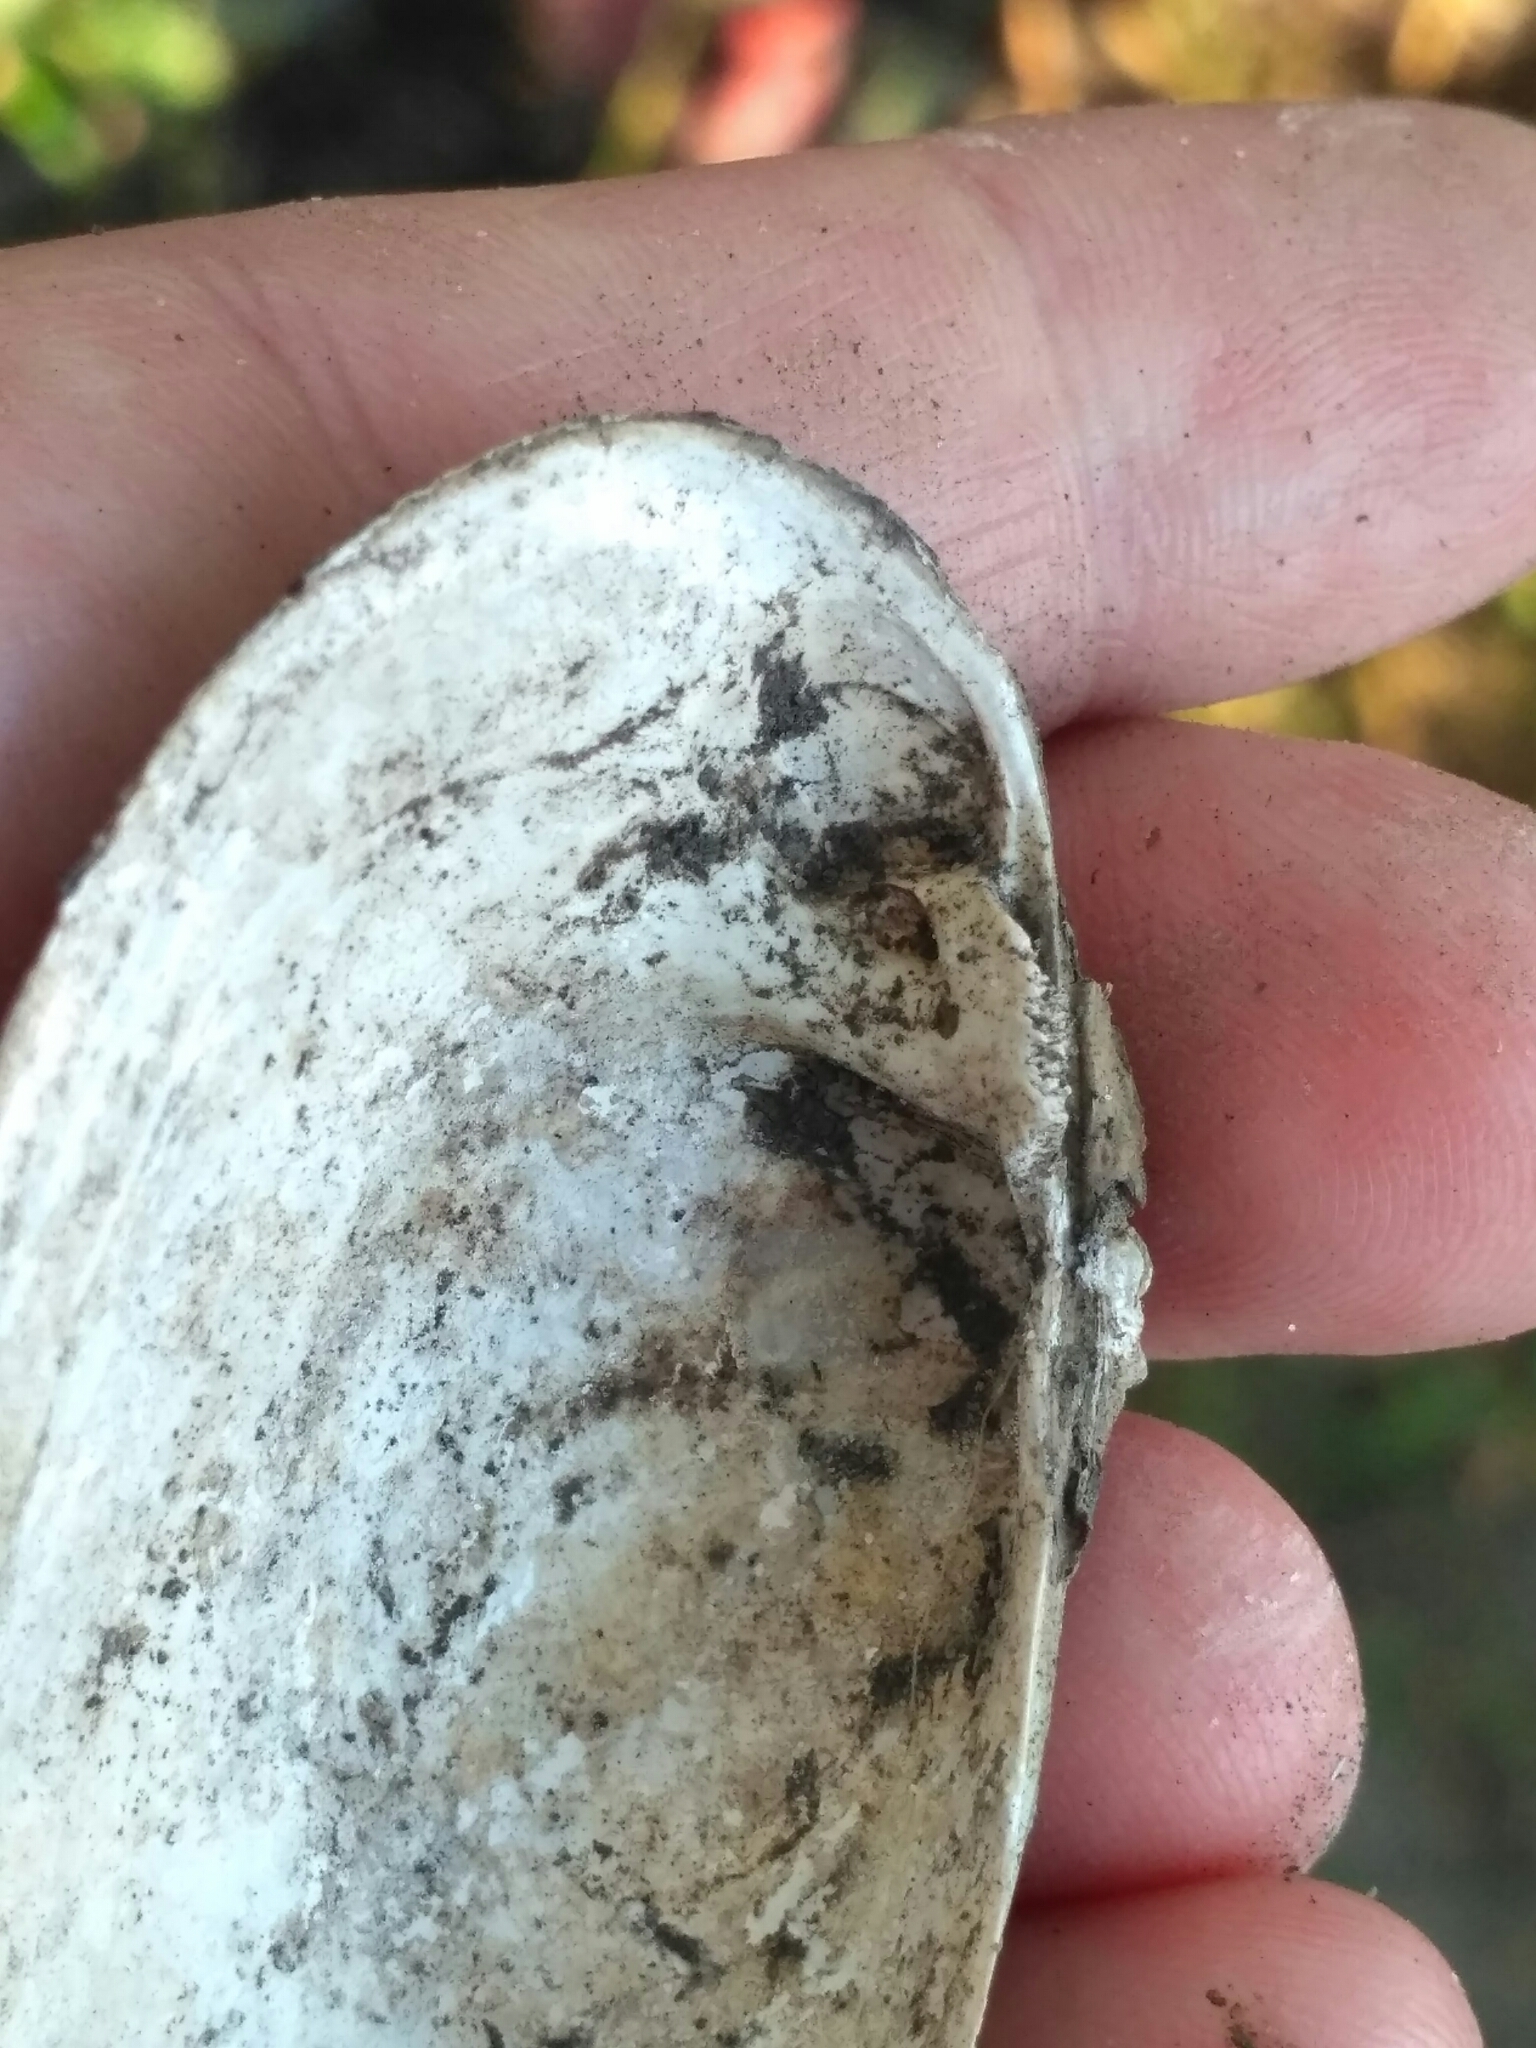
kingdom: Animalia
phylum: Mollusca
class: Bivalvia
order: Unionida
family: Unionidae
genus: Unio
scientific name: Unio crassus
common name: Thick shelled river mussel
